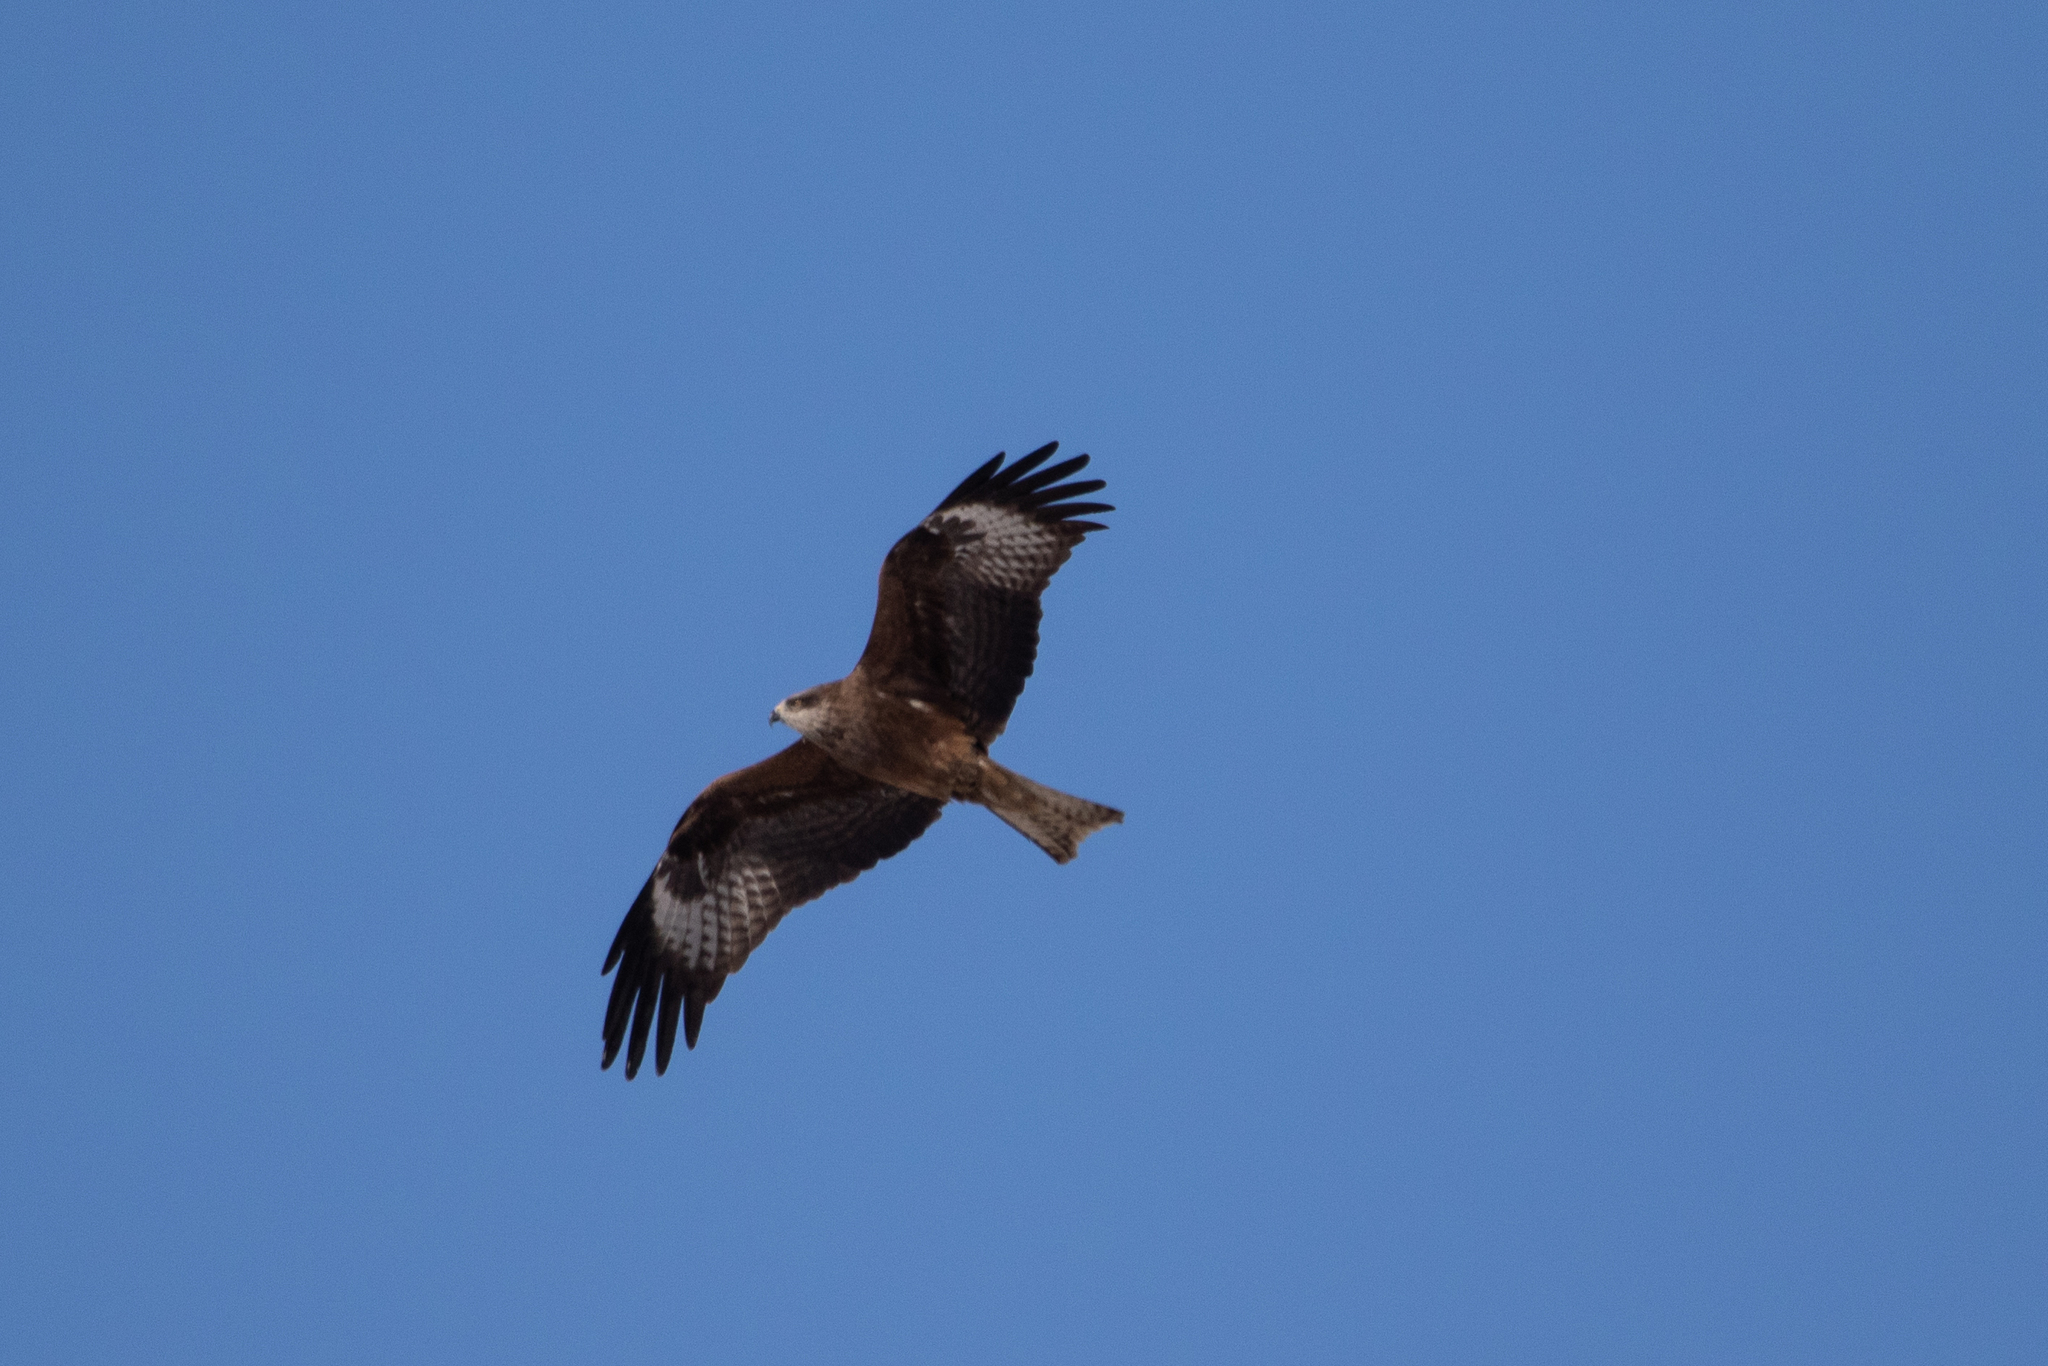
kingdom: Animalia
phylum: Chordata
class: Aves
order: Accipitriformes
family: Accipitridae
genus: Milvus
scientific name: Milvus migrans
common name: Black kite
